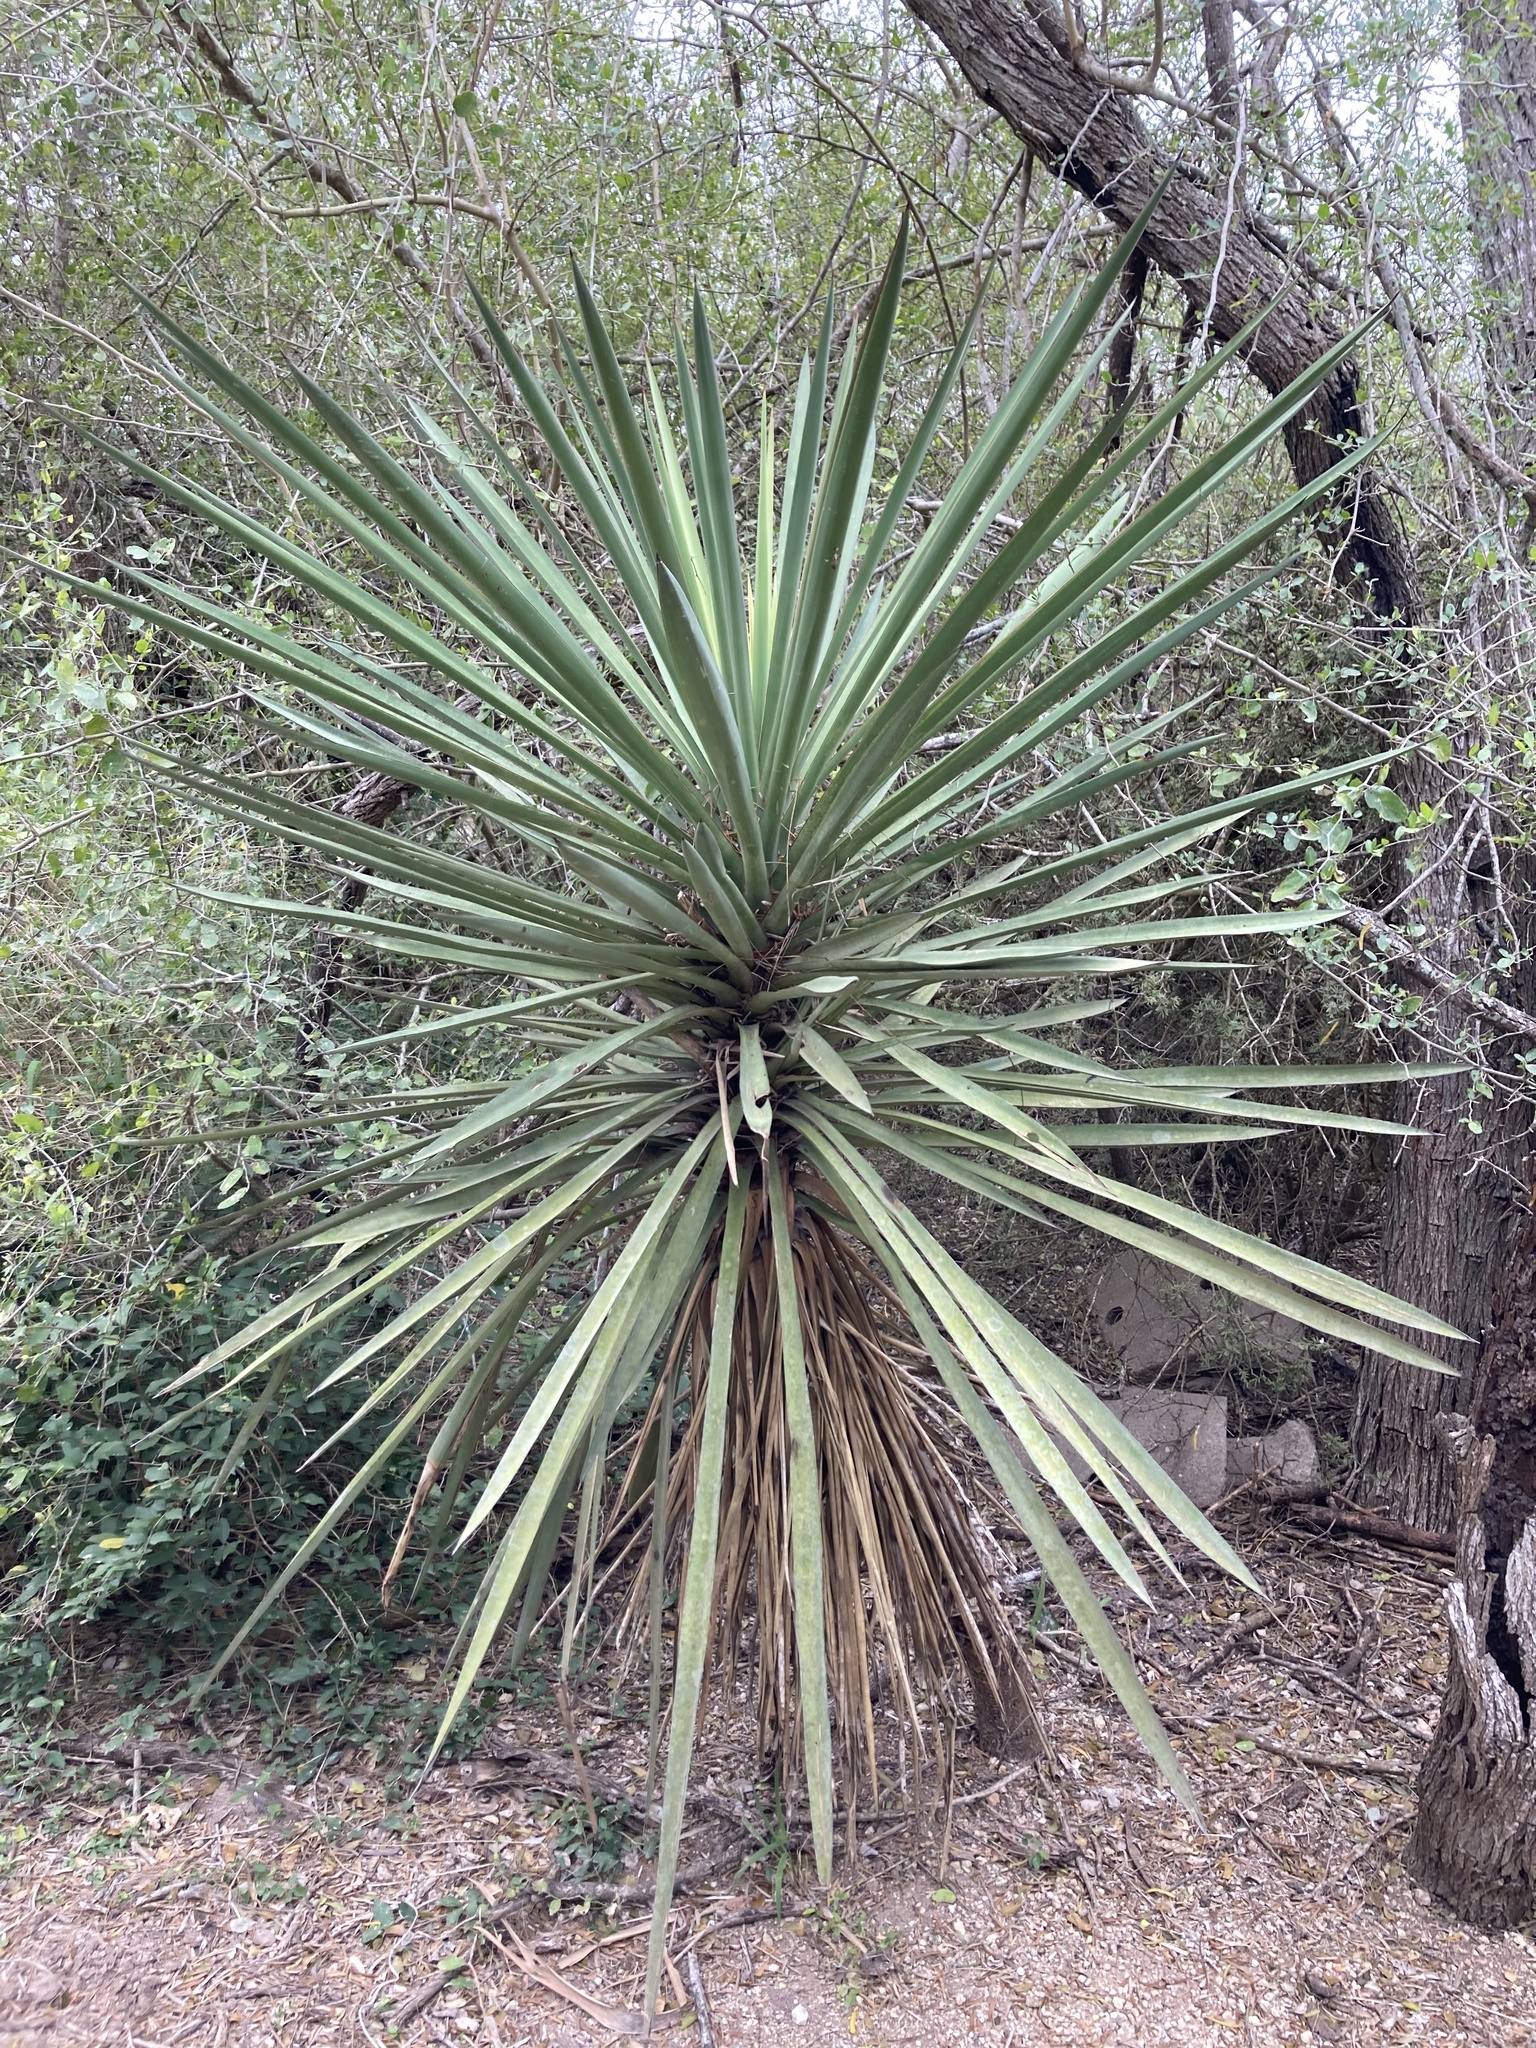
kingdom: Plantae
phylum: Tracheophyta
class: Liliopsida
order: Asparagales
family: Asparagaceae
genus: Yucca
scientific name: Yucca treculiana
